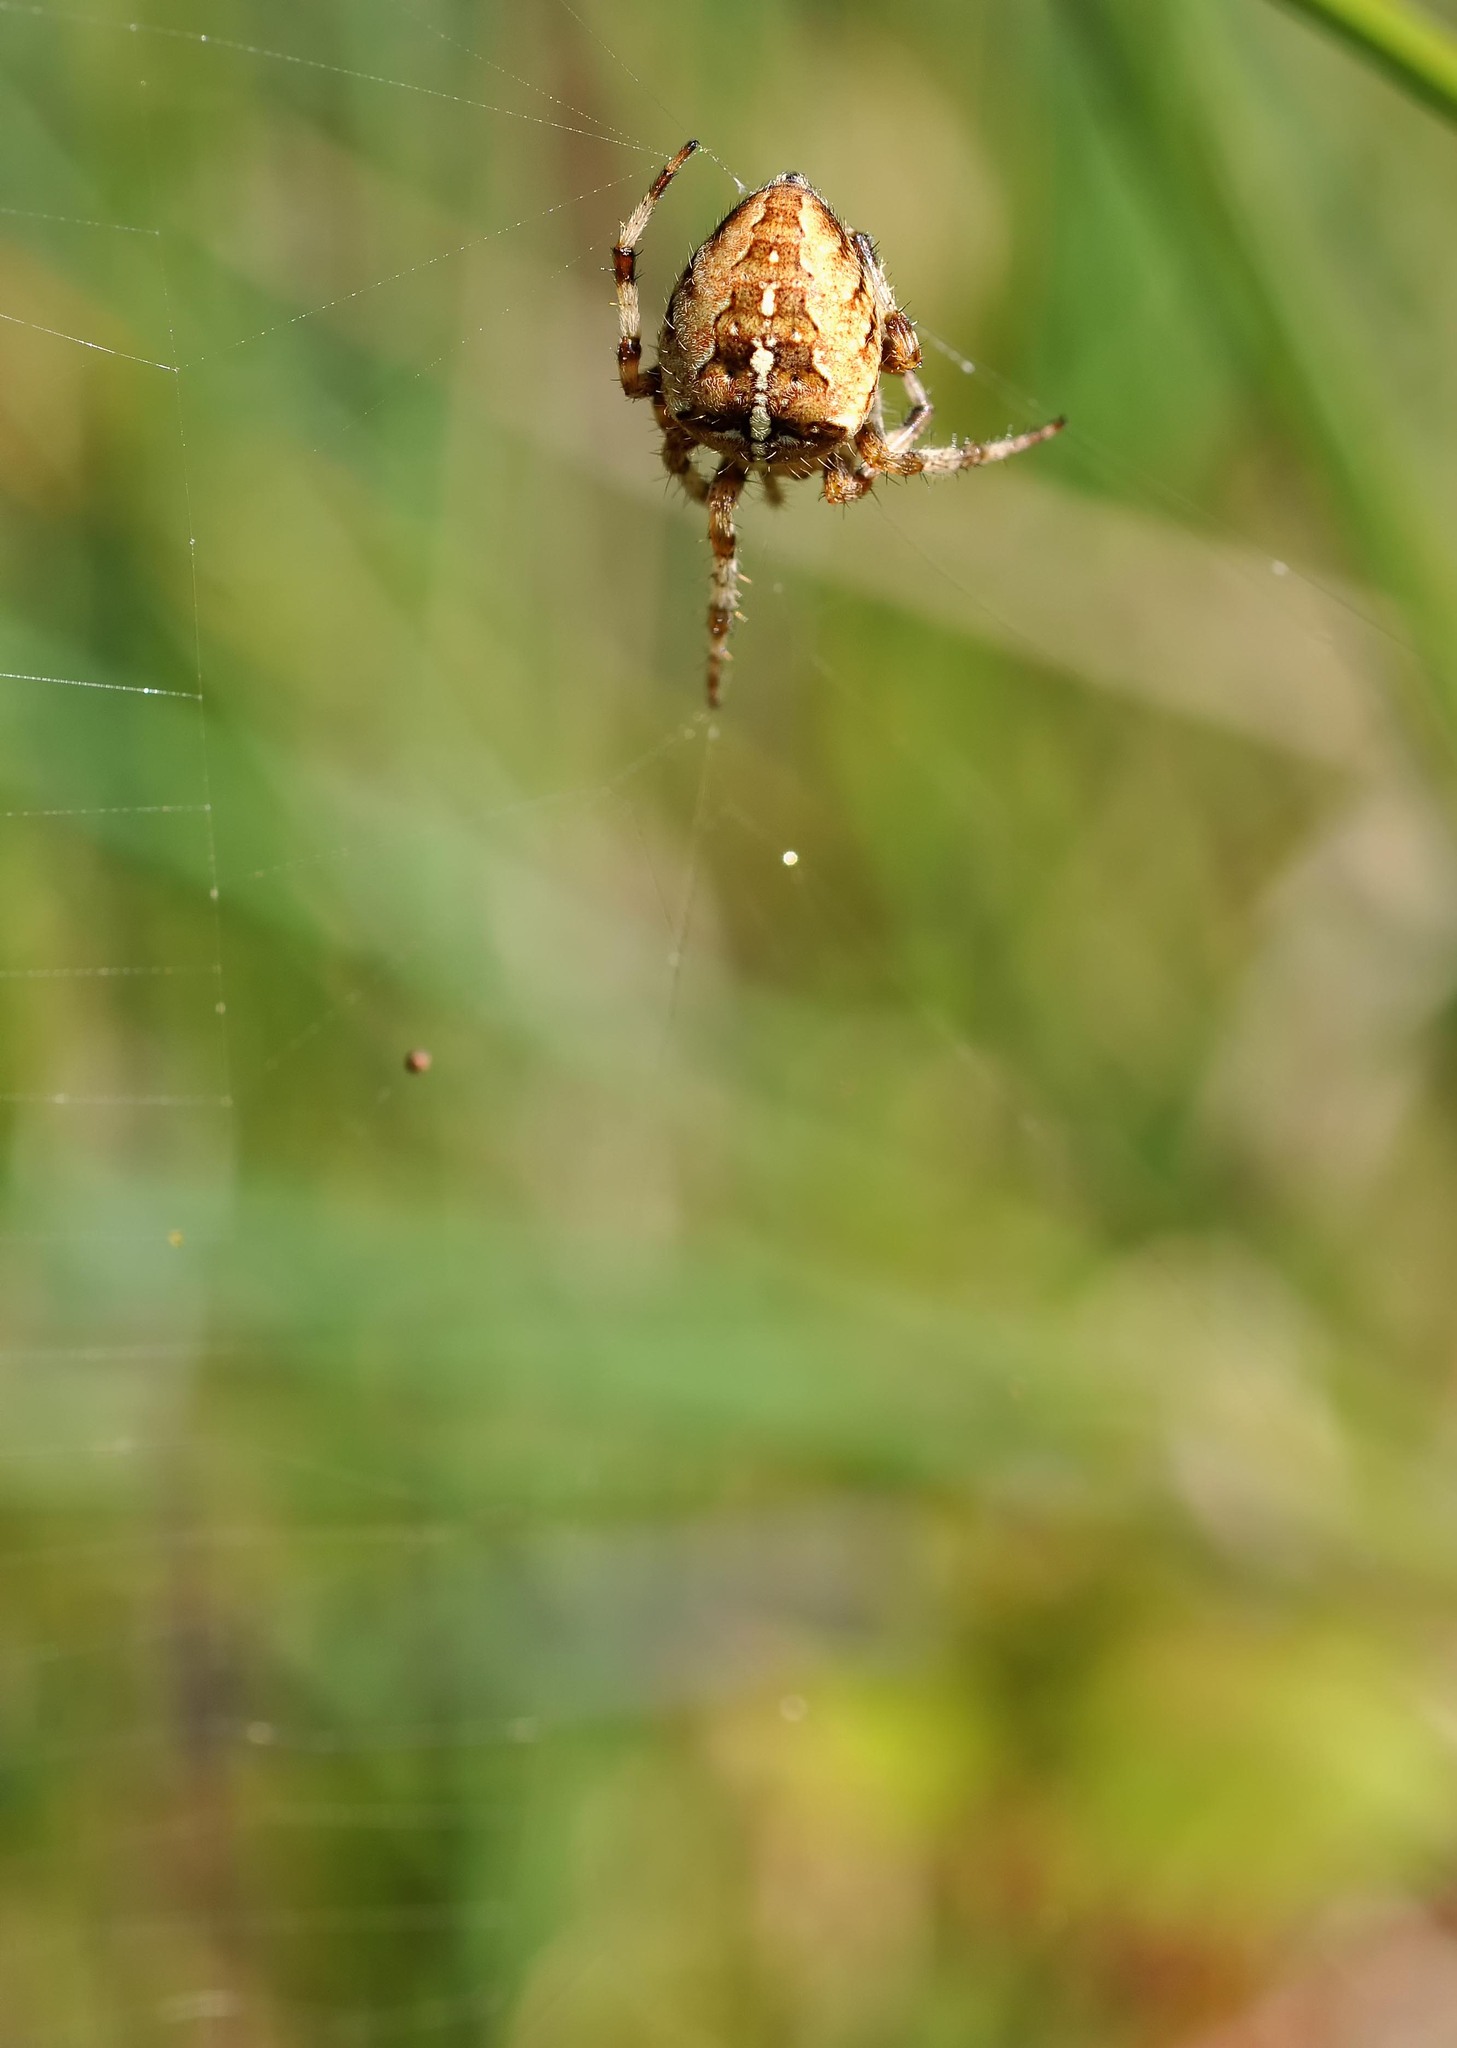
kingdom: Animalia
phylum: Arthropoda
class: Arachnida
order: Araneae
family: Araneidae
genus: Araneus
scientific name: Araneus diadematus
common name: Cross orbweaver
